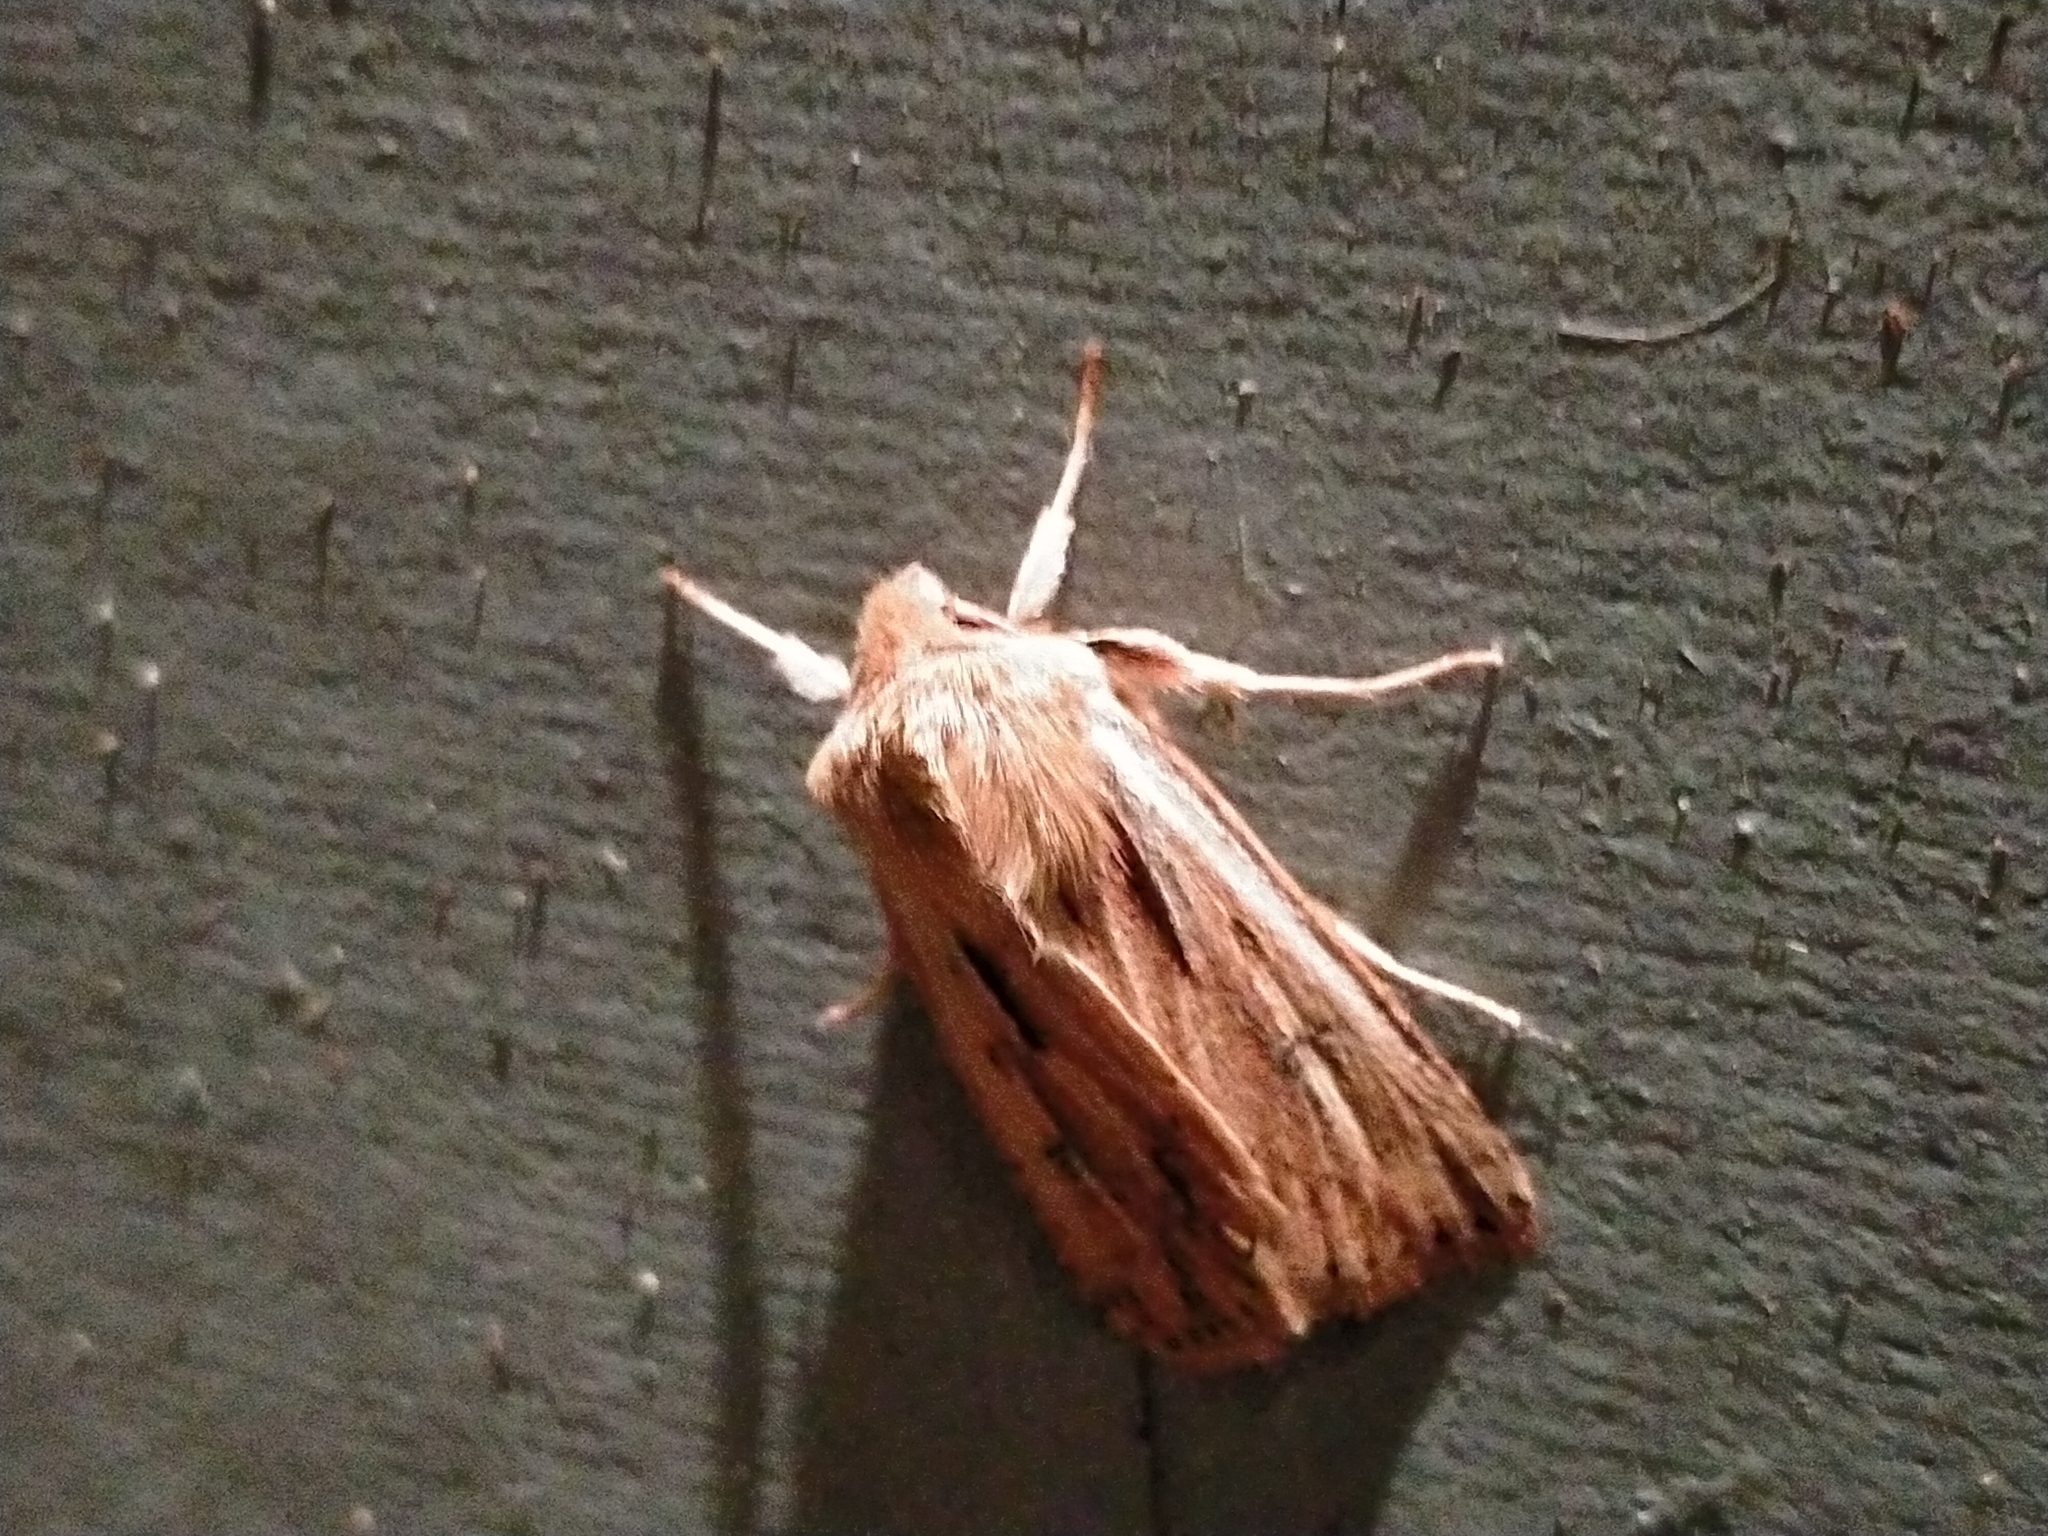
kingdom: Animalia
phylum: Arthropoda
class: Insecta
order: Lepidoptera
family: Noctuidae
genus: Ichneutica
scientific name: Ichneutica propria
